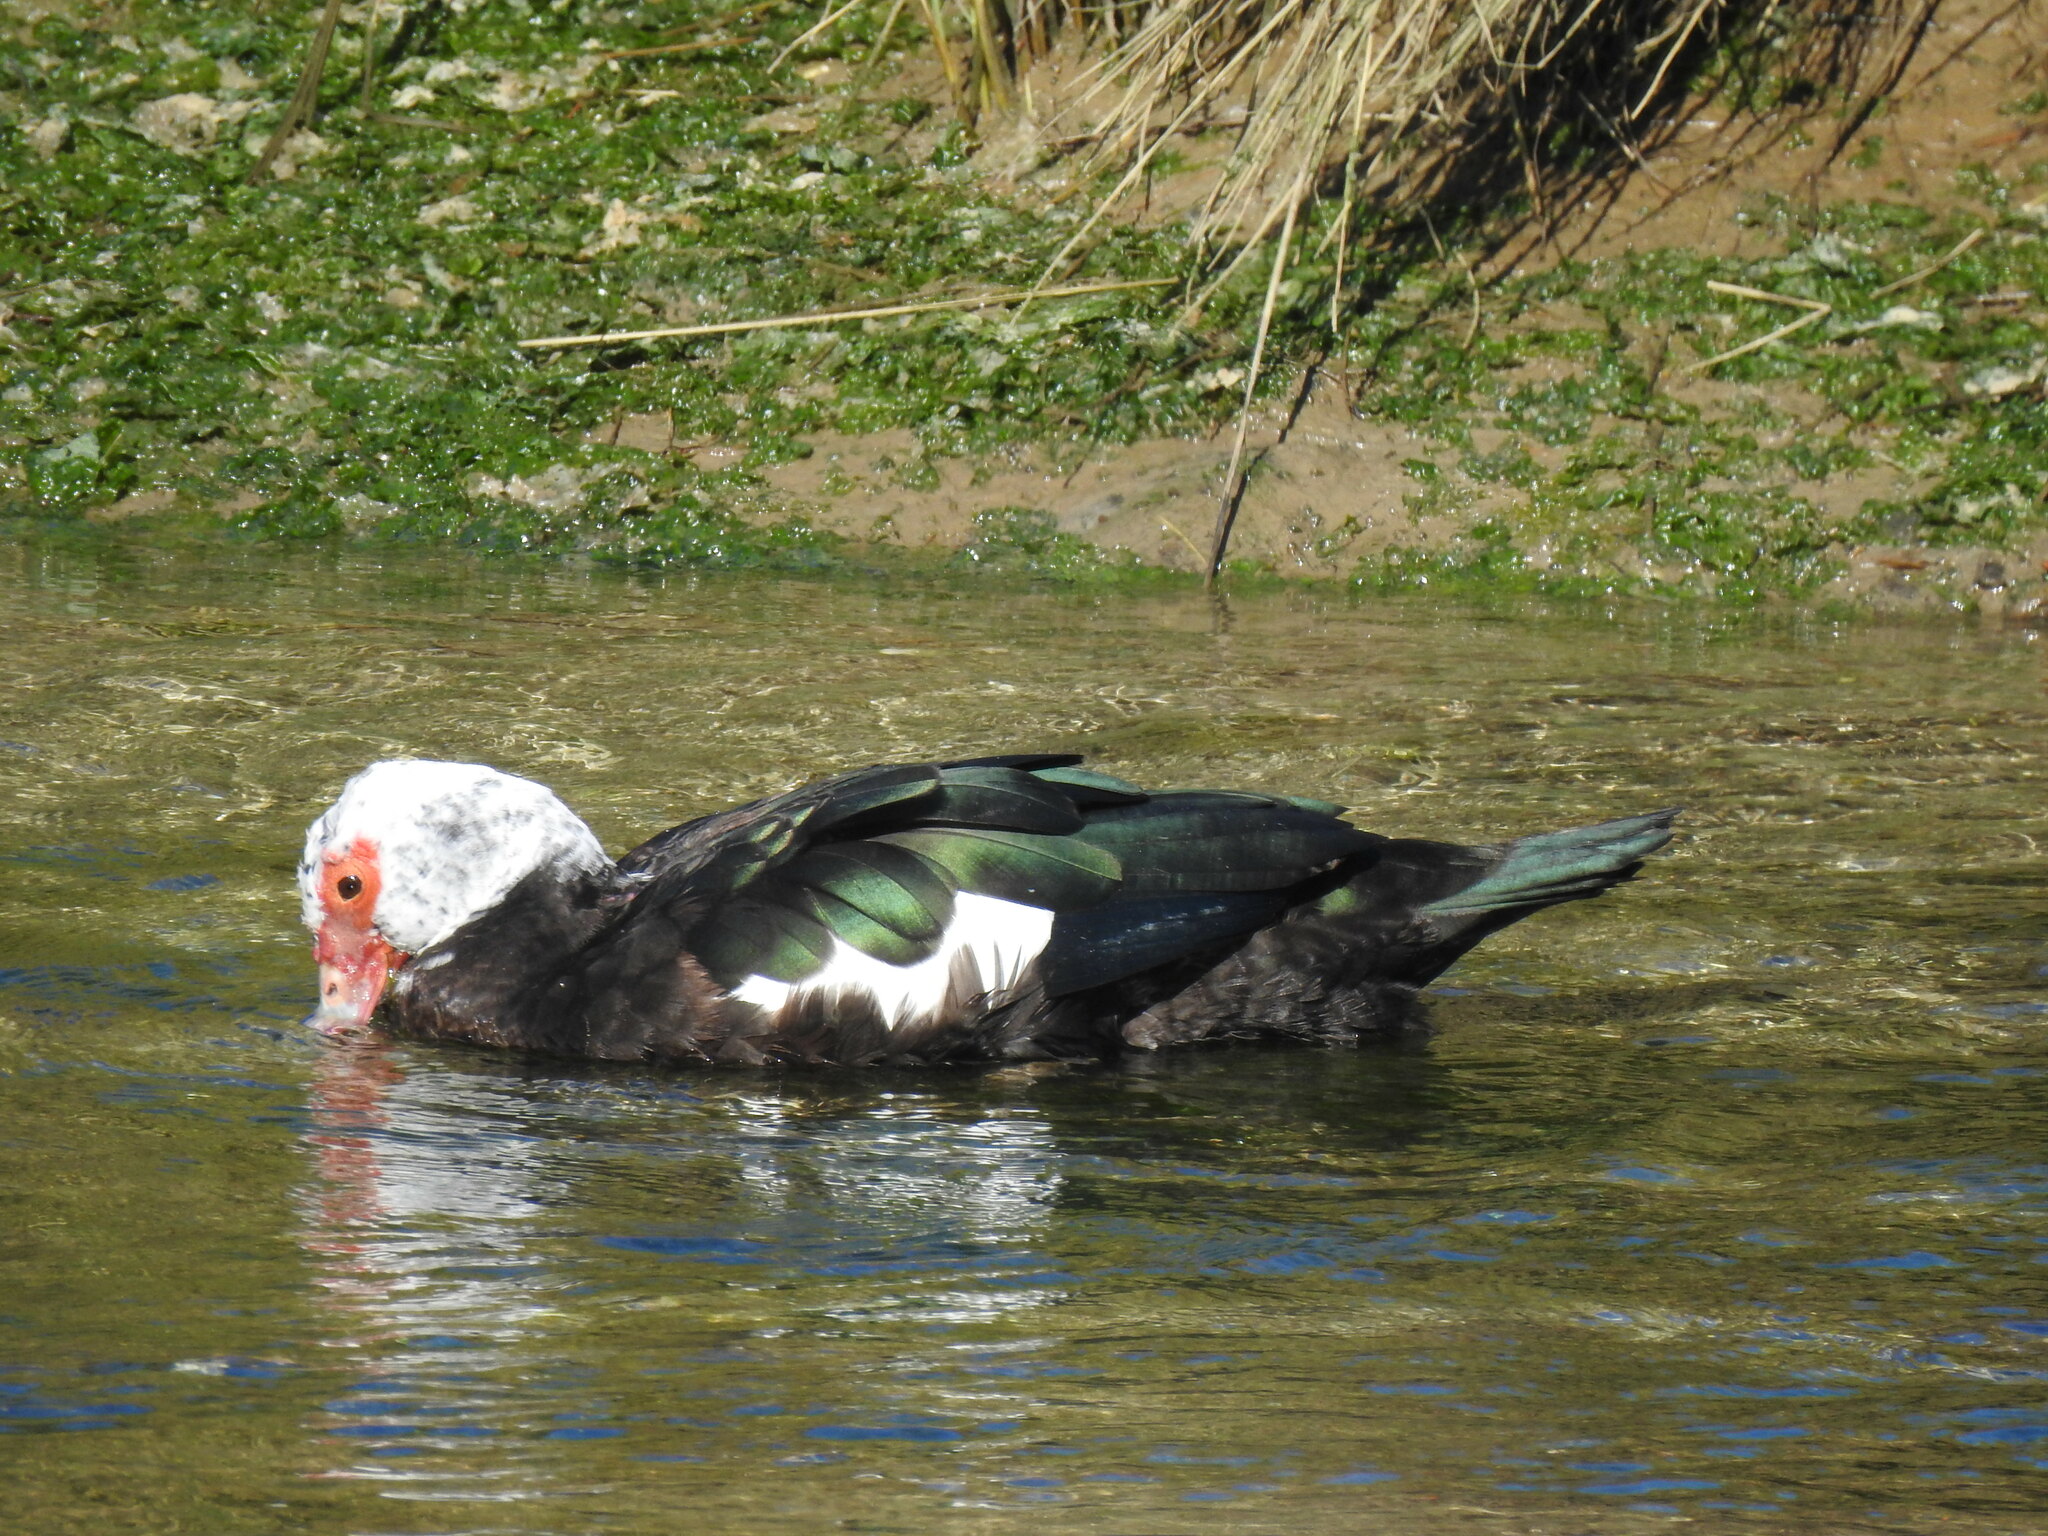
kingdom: Animalia
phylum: Chordata
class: Aves
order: Anseriformes
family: Anatidae
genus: Cairina
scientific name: Cairina moschata
